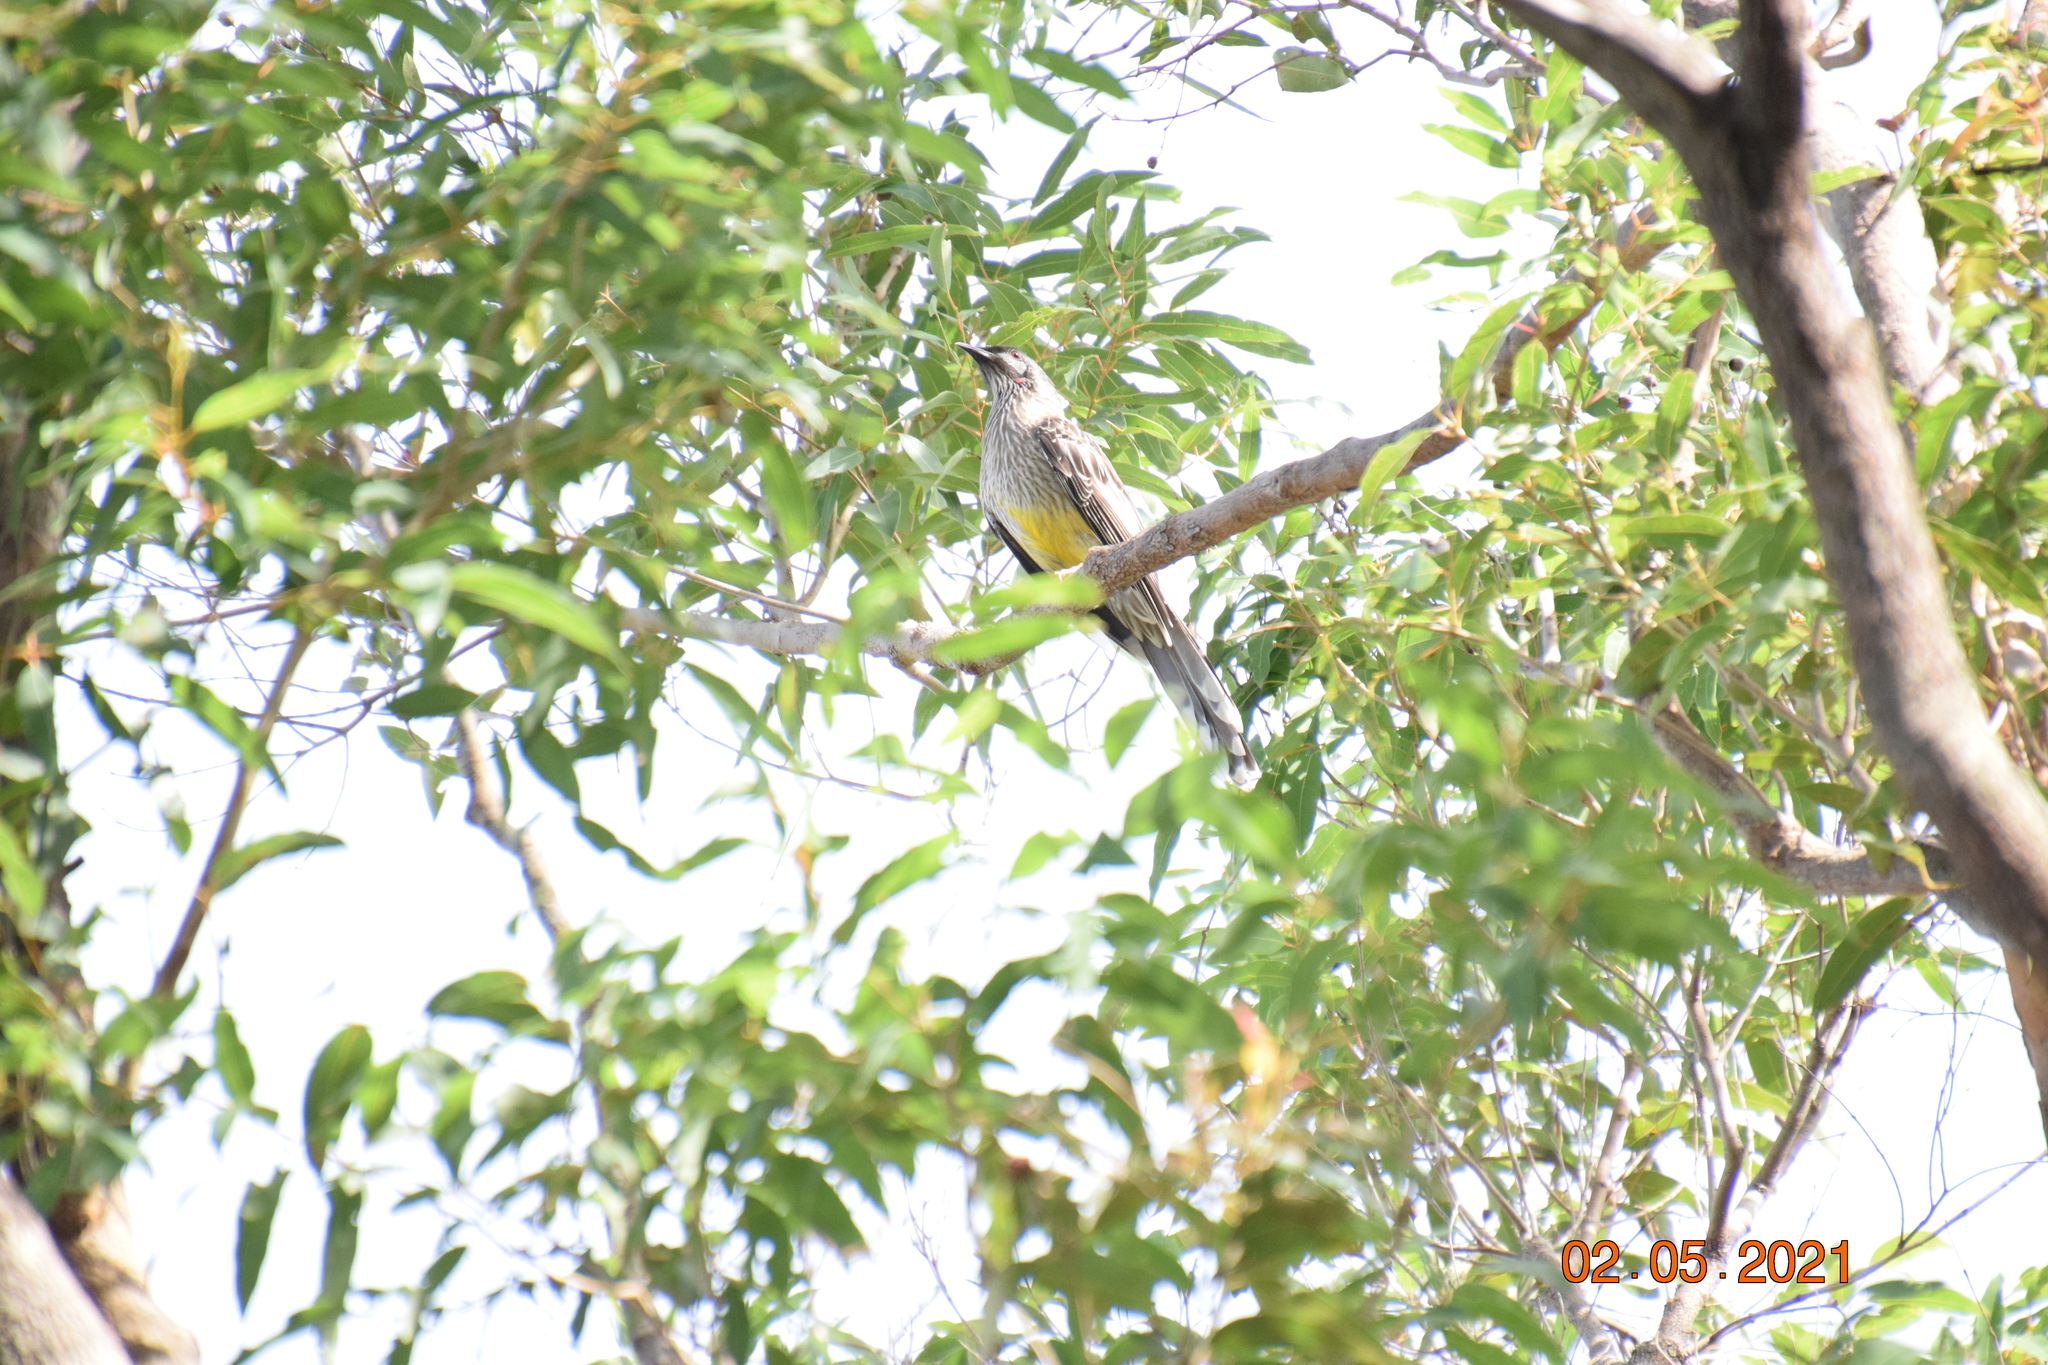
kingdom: Animalia
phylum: Chordata
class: Aves
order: Passeriformes
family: Meliphagidae
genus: Anthochaera
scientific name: Anthochaera carunculata
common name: Red wattlebird
